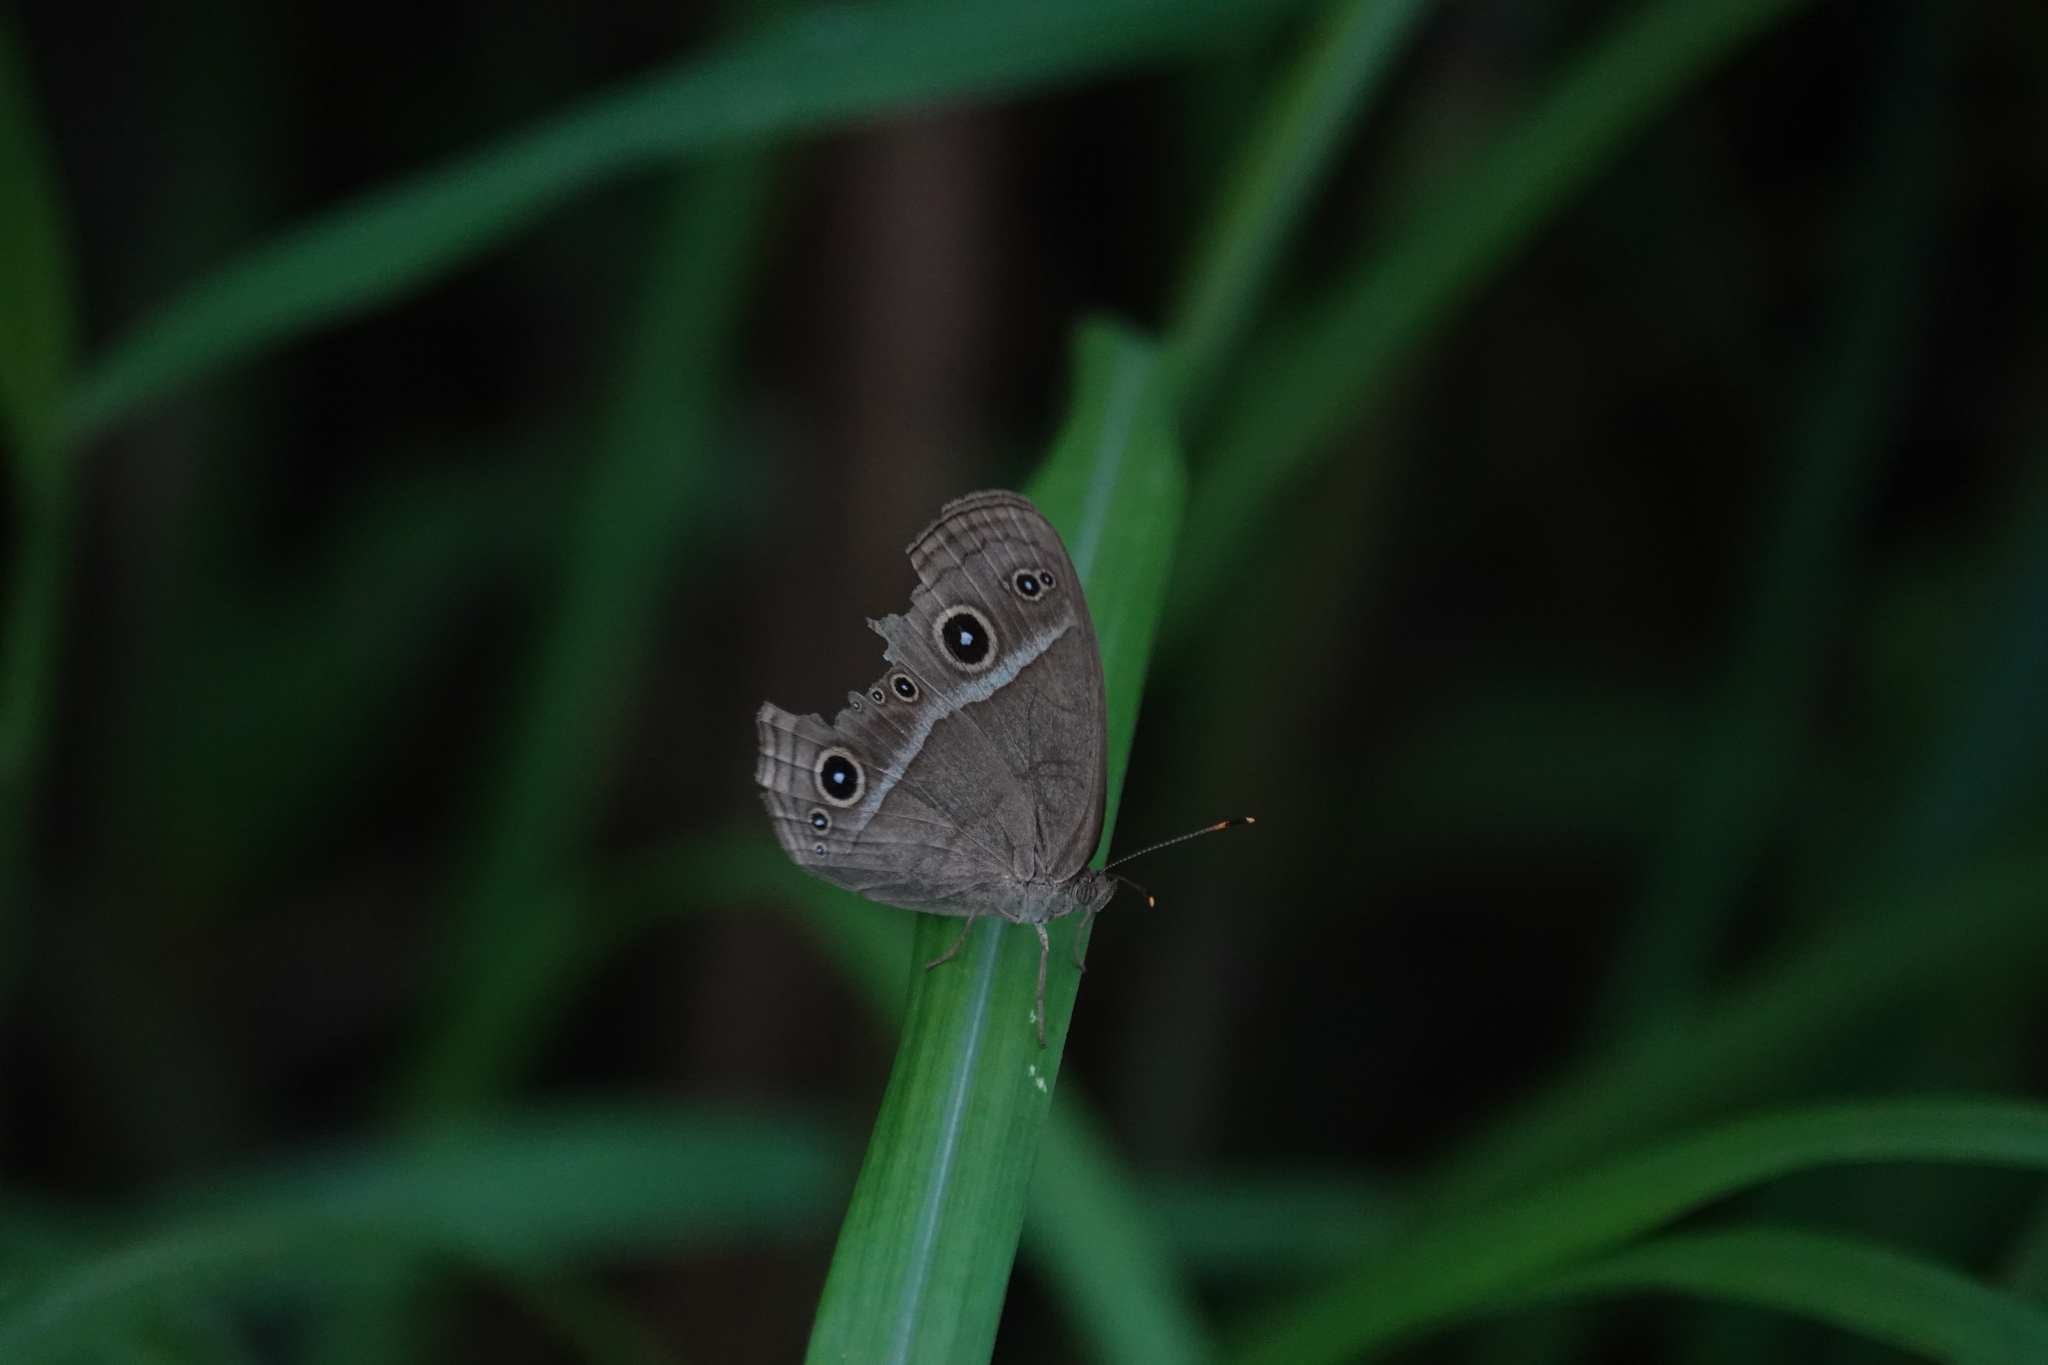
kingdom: Animalia
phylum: Arthropoda
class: Insecta
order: Lepidoptera
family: Nymphalidae
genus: Mycalesis
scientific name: Mycalesis gotama
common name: Chinese bushbrown
